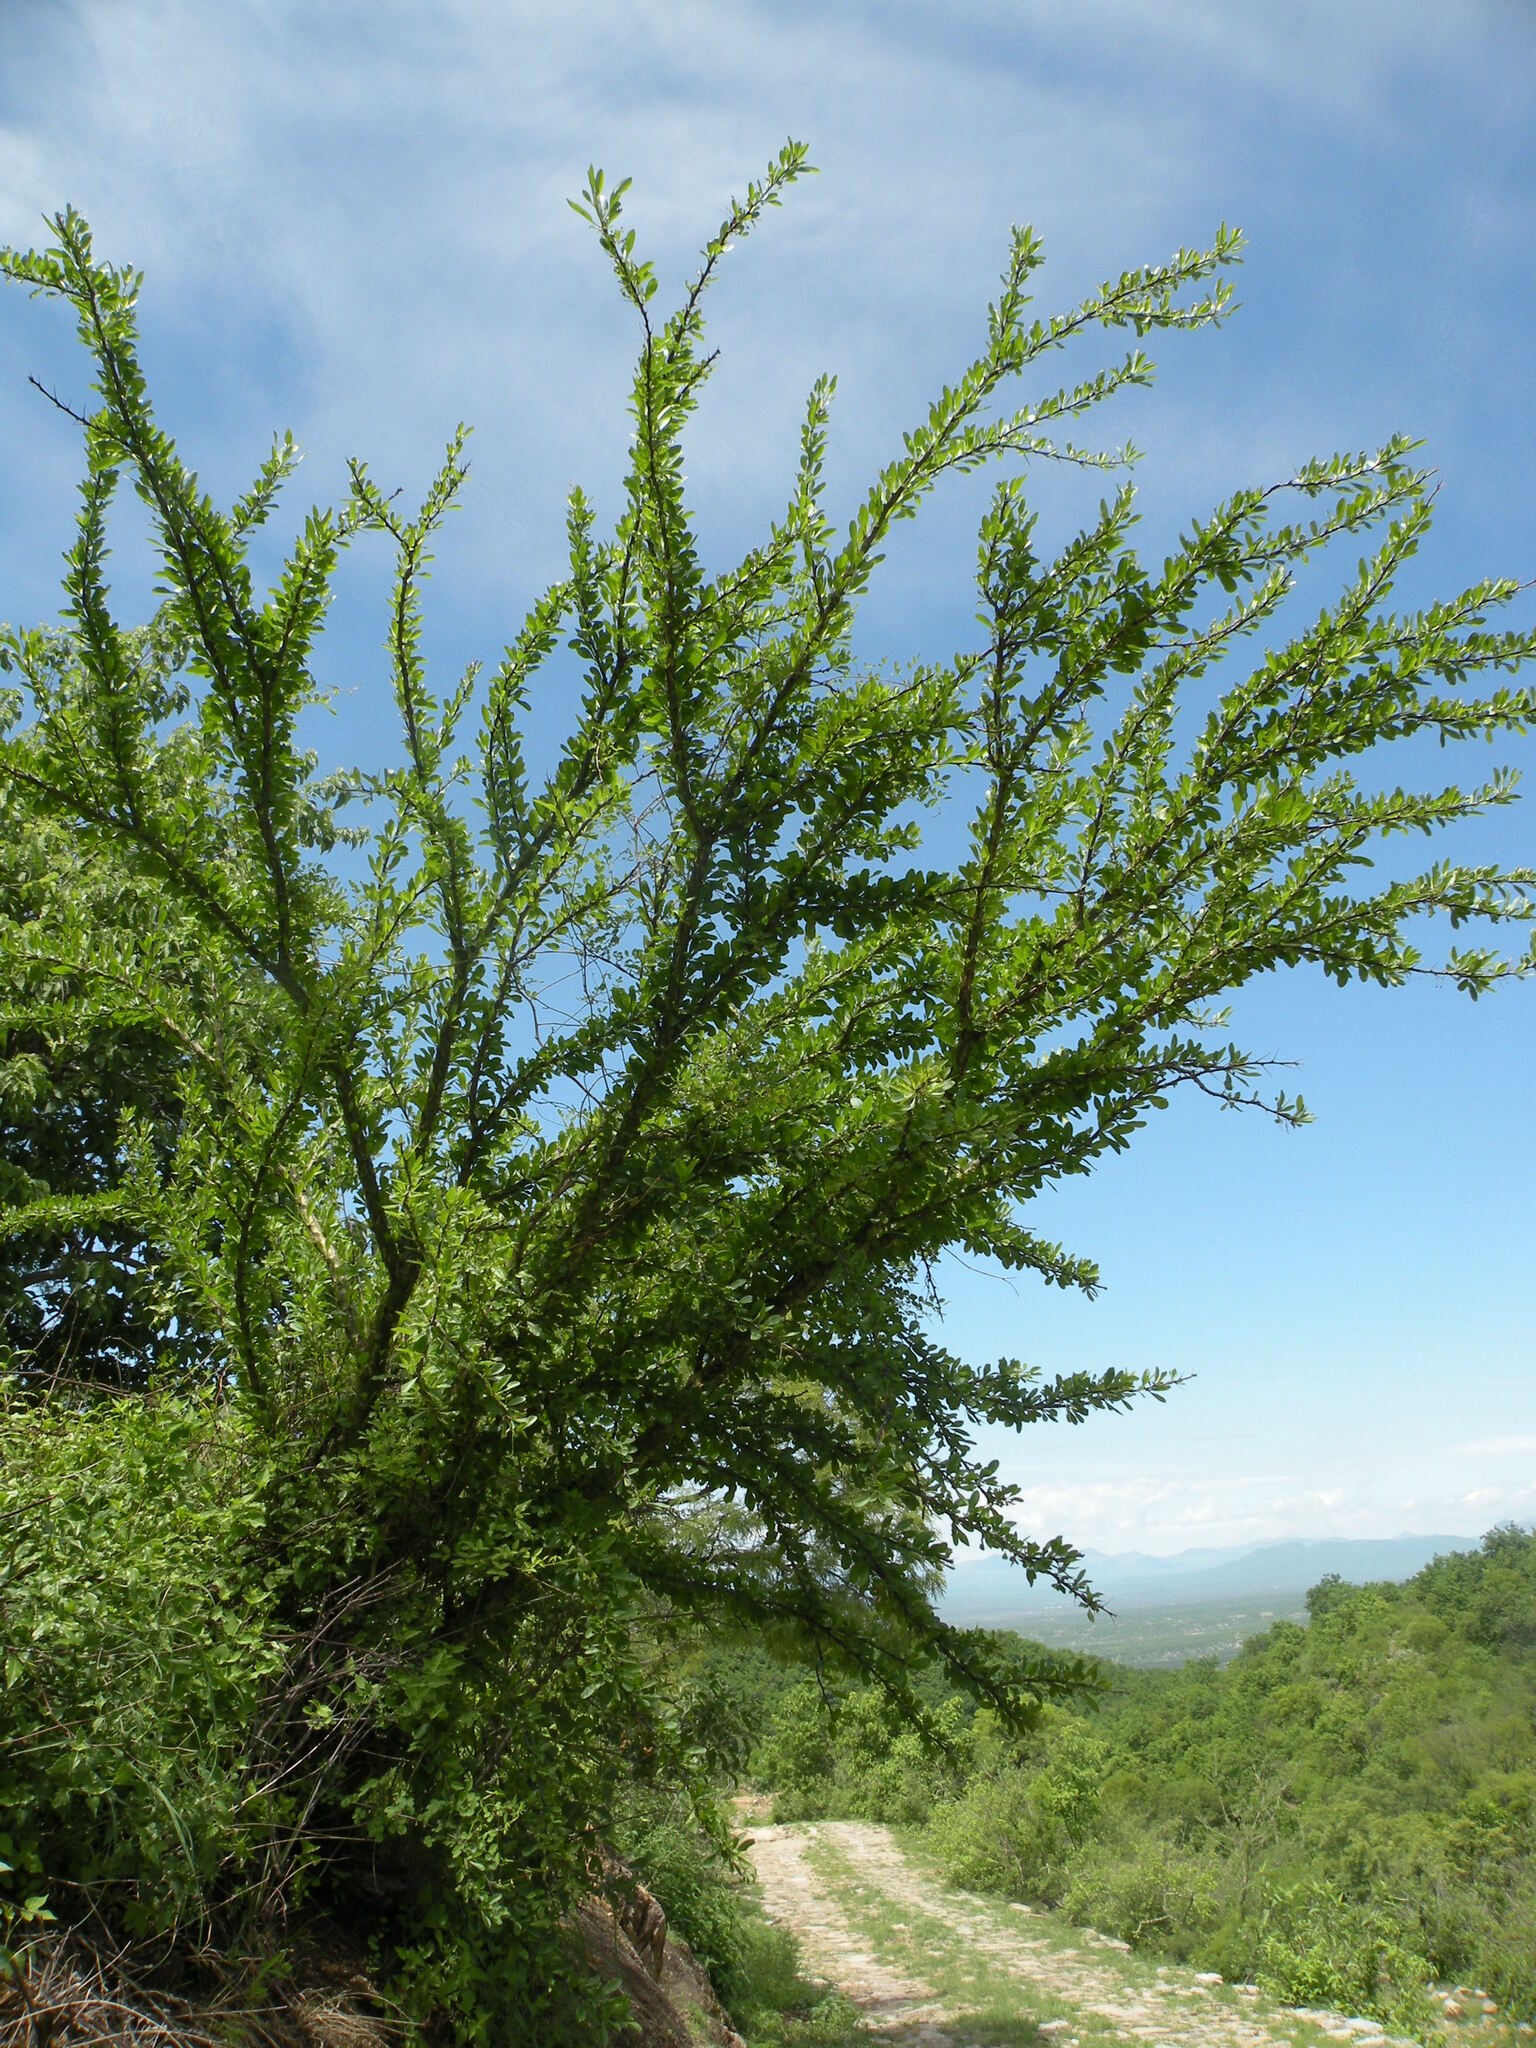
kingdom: Plantae
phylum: Tracheophyta
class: Magnoliopsida
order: Ericales
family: Fouquieriaceae
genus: Fouquieria
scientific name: Fouquieria macdougalii
